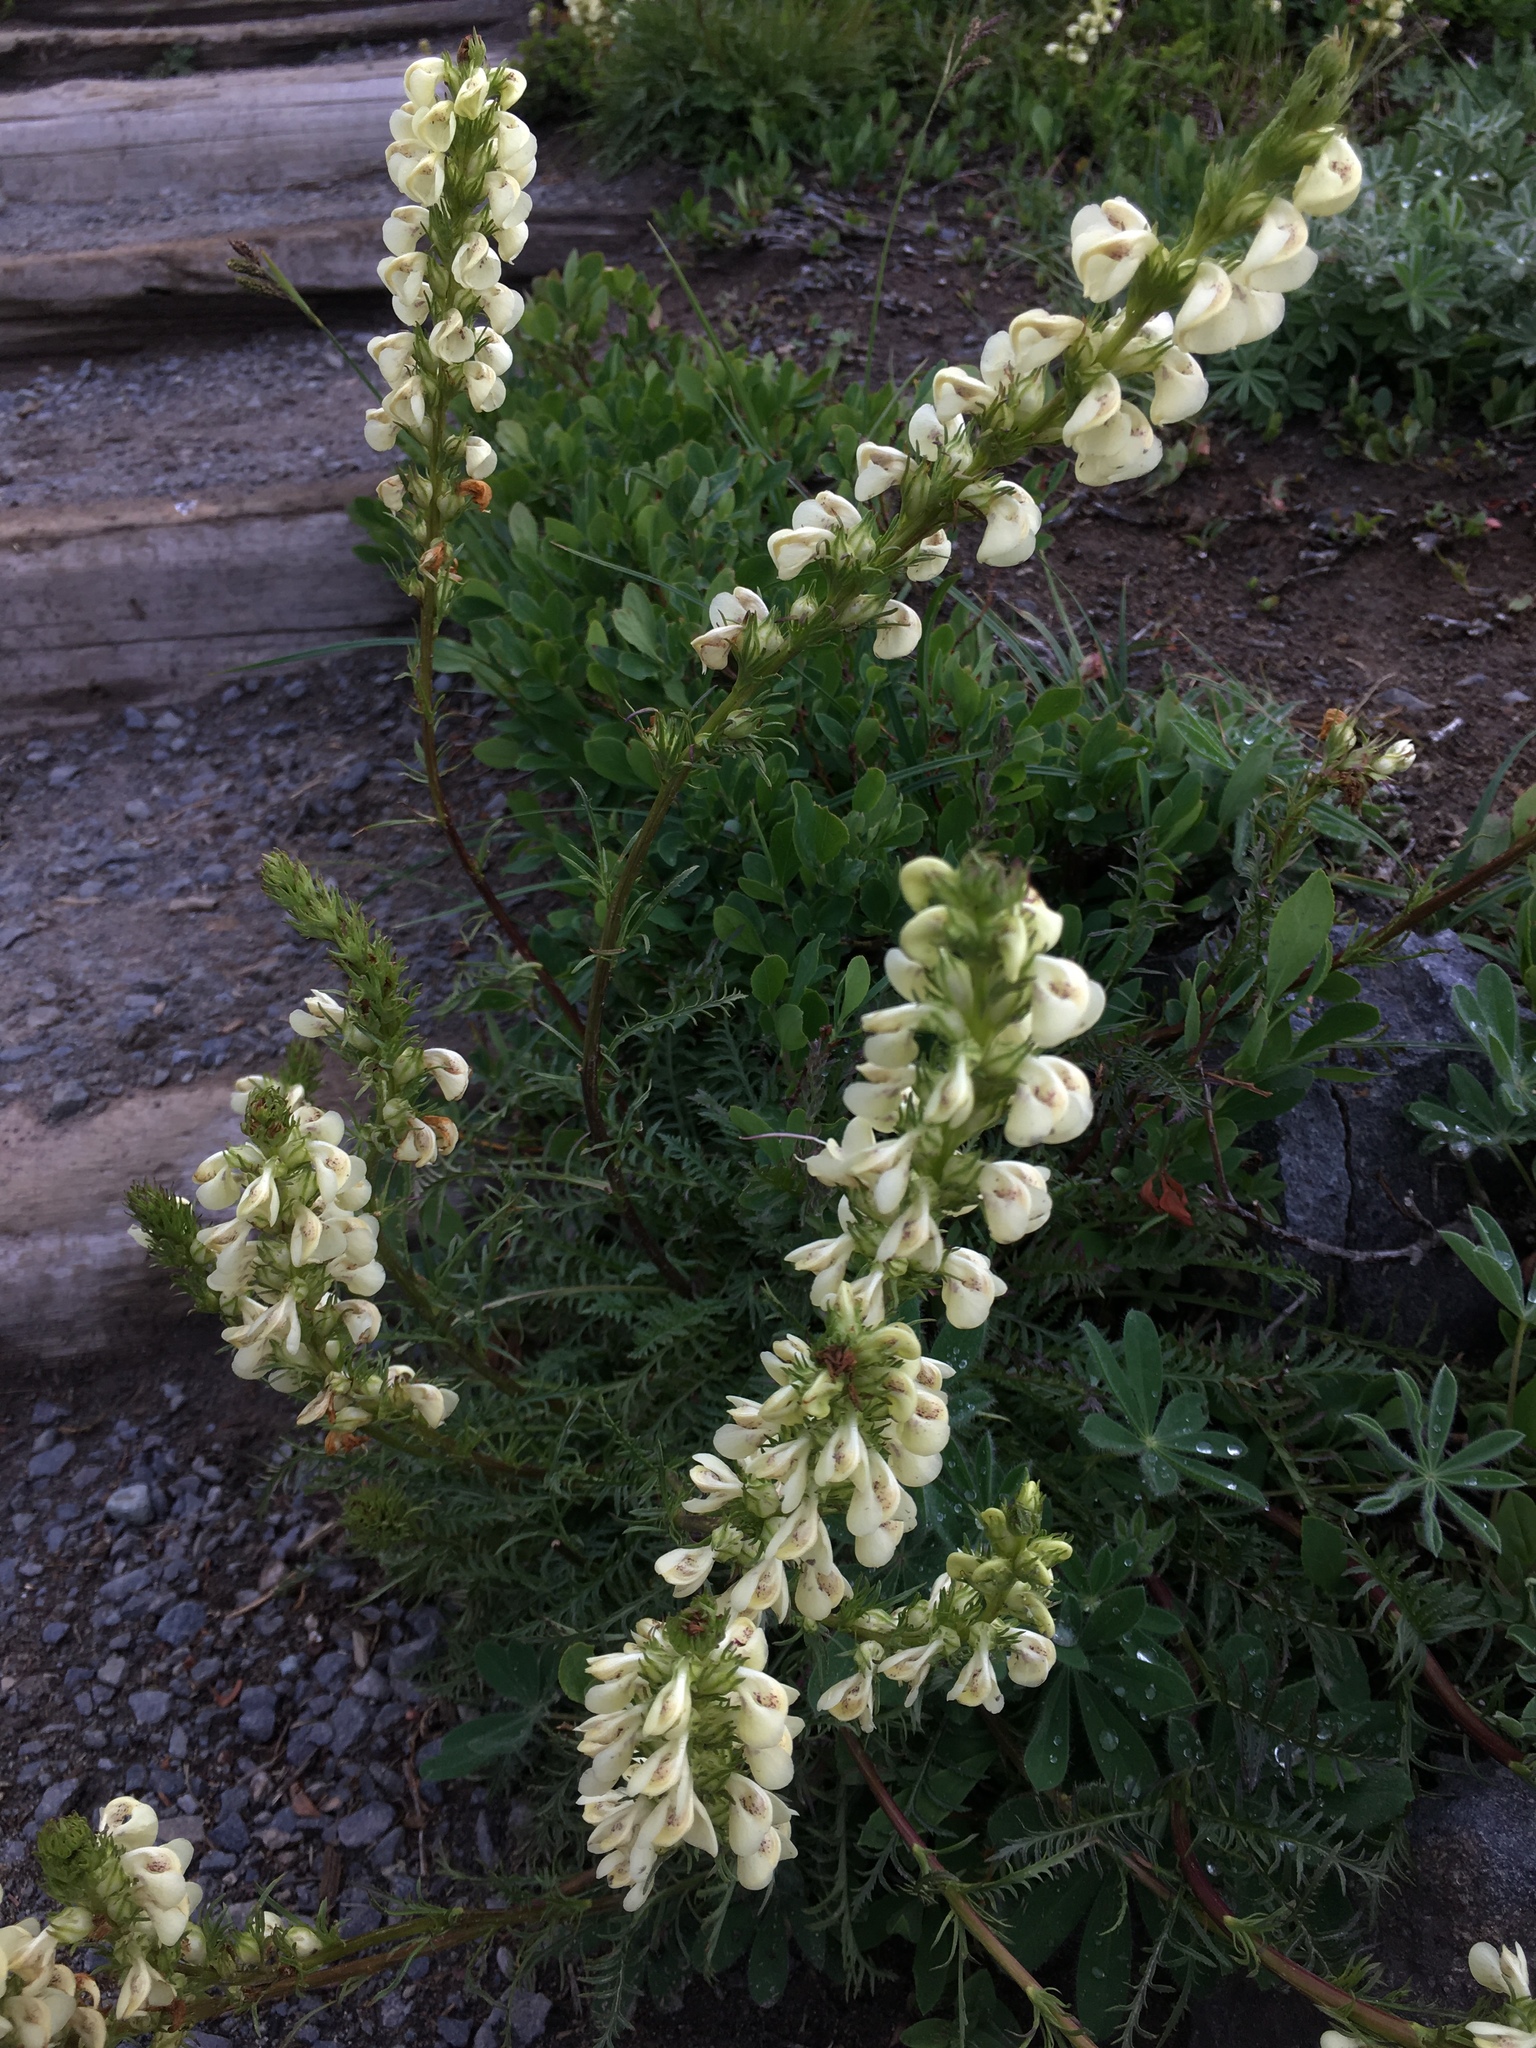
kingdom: Plantae
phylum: Tracheophyta
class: Magnoliopsida
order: Lamiales
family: Orobanchaceae
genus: Pedicularis
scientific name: Pedicularis contorta
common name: Coiled lousewort
